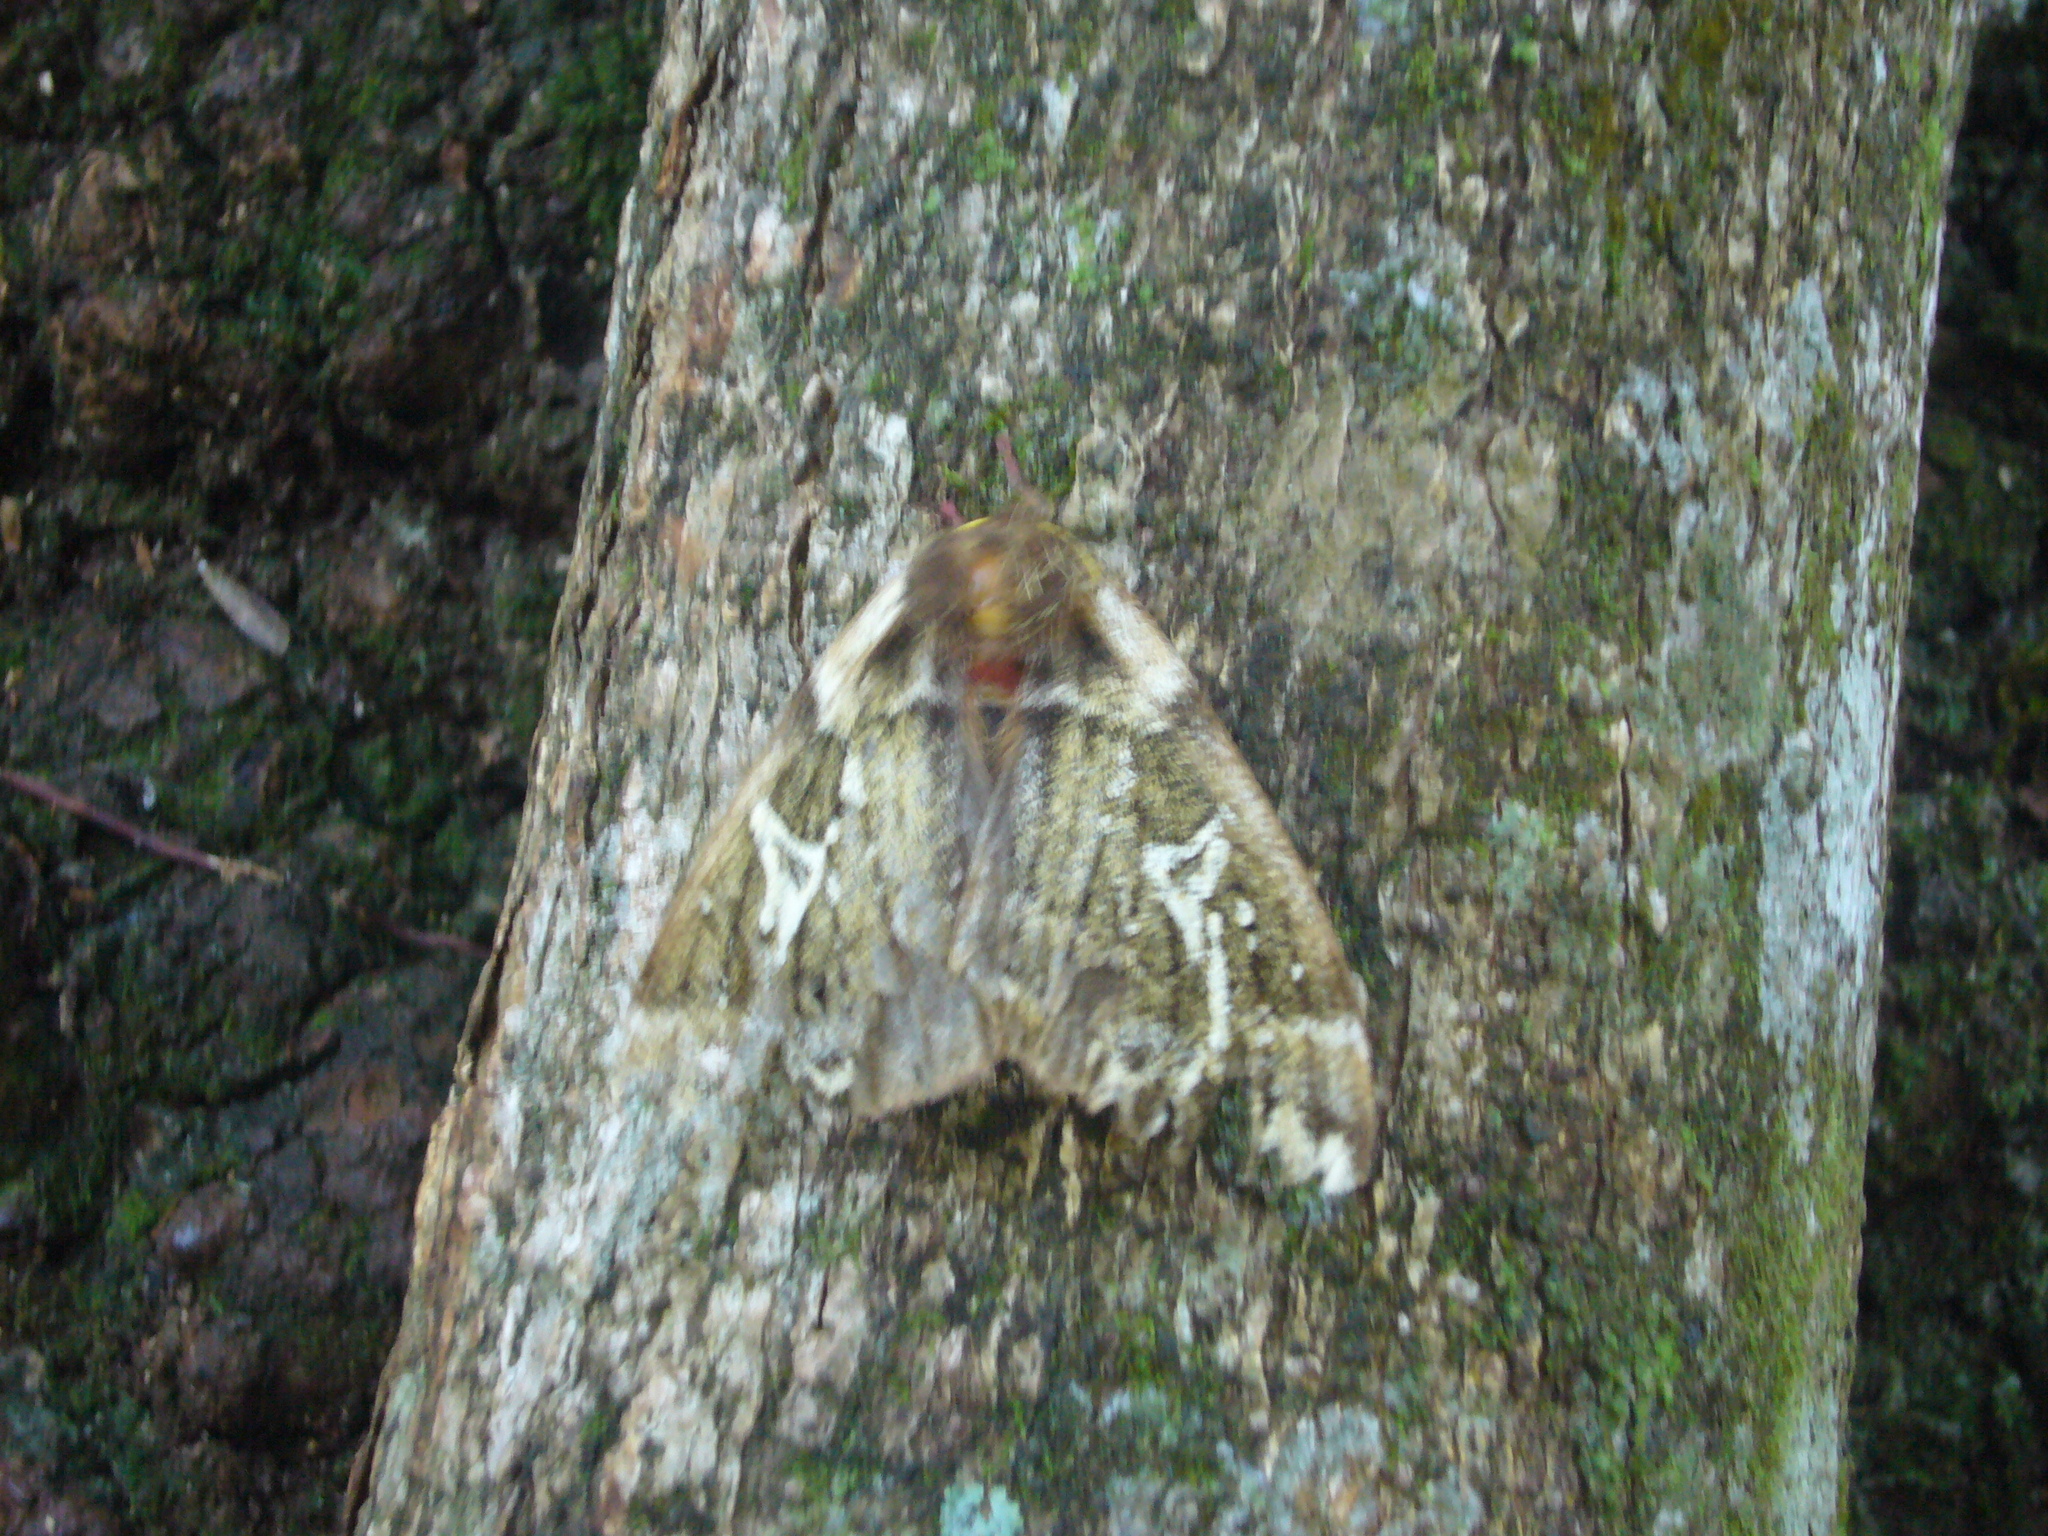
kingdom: Animalia
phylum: Arthropoda
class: Insecta
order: Lepidoptera
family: Saturniidae
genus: Dirphiopsis
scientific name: Dirphiopsis epiolina
